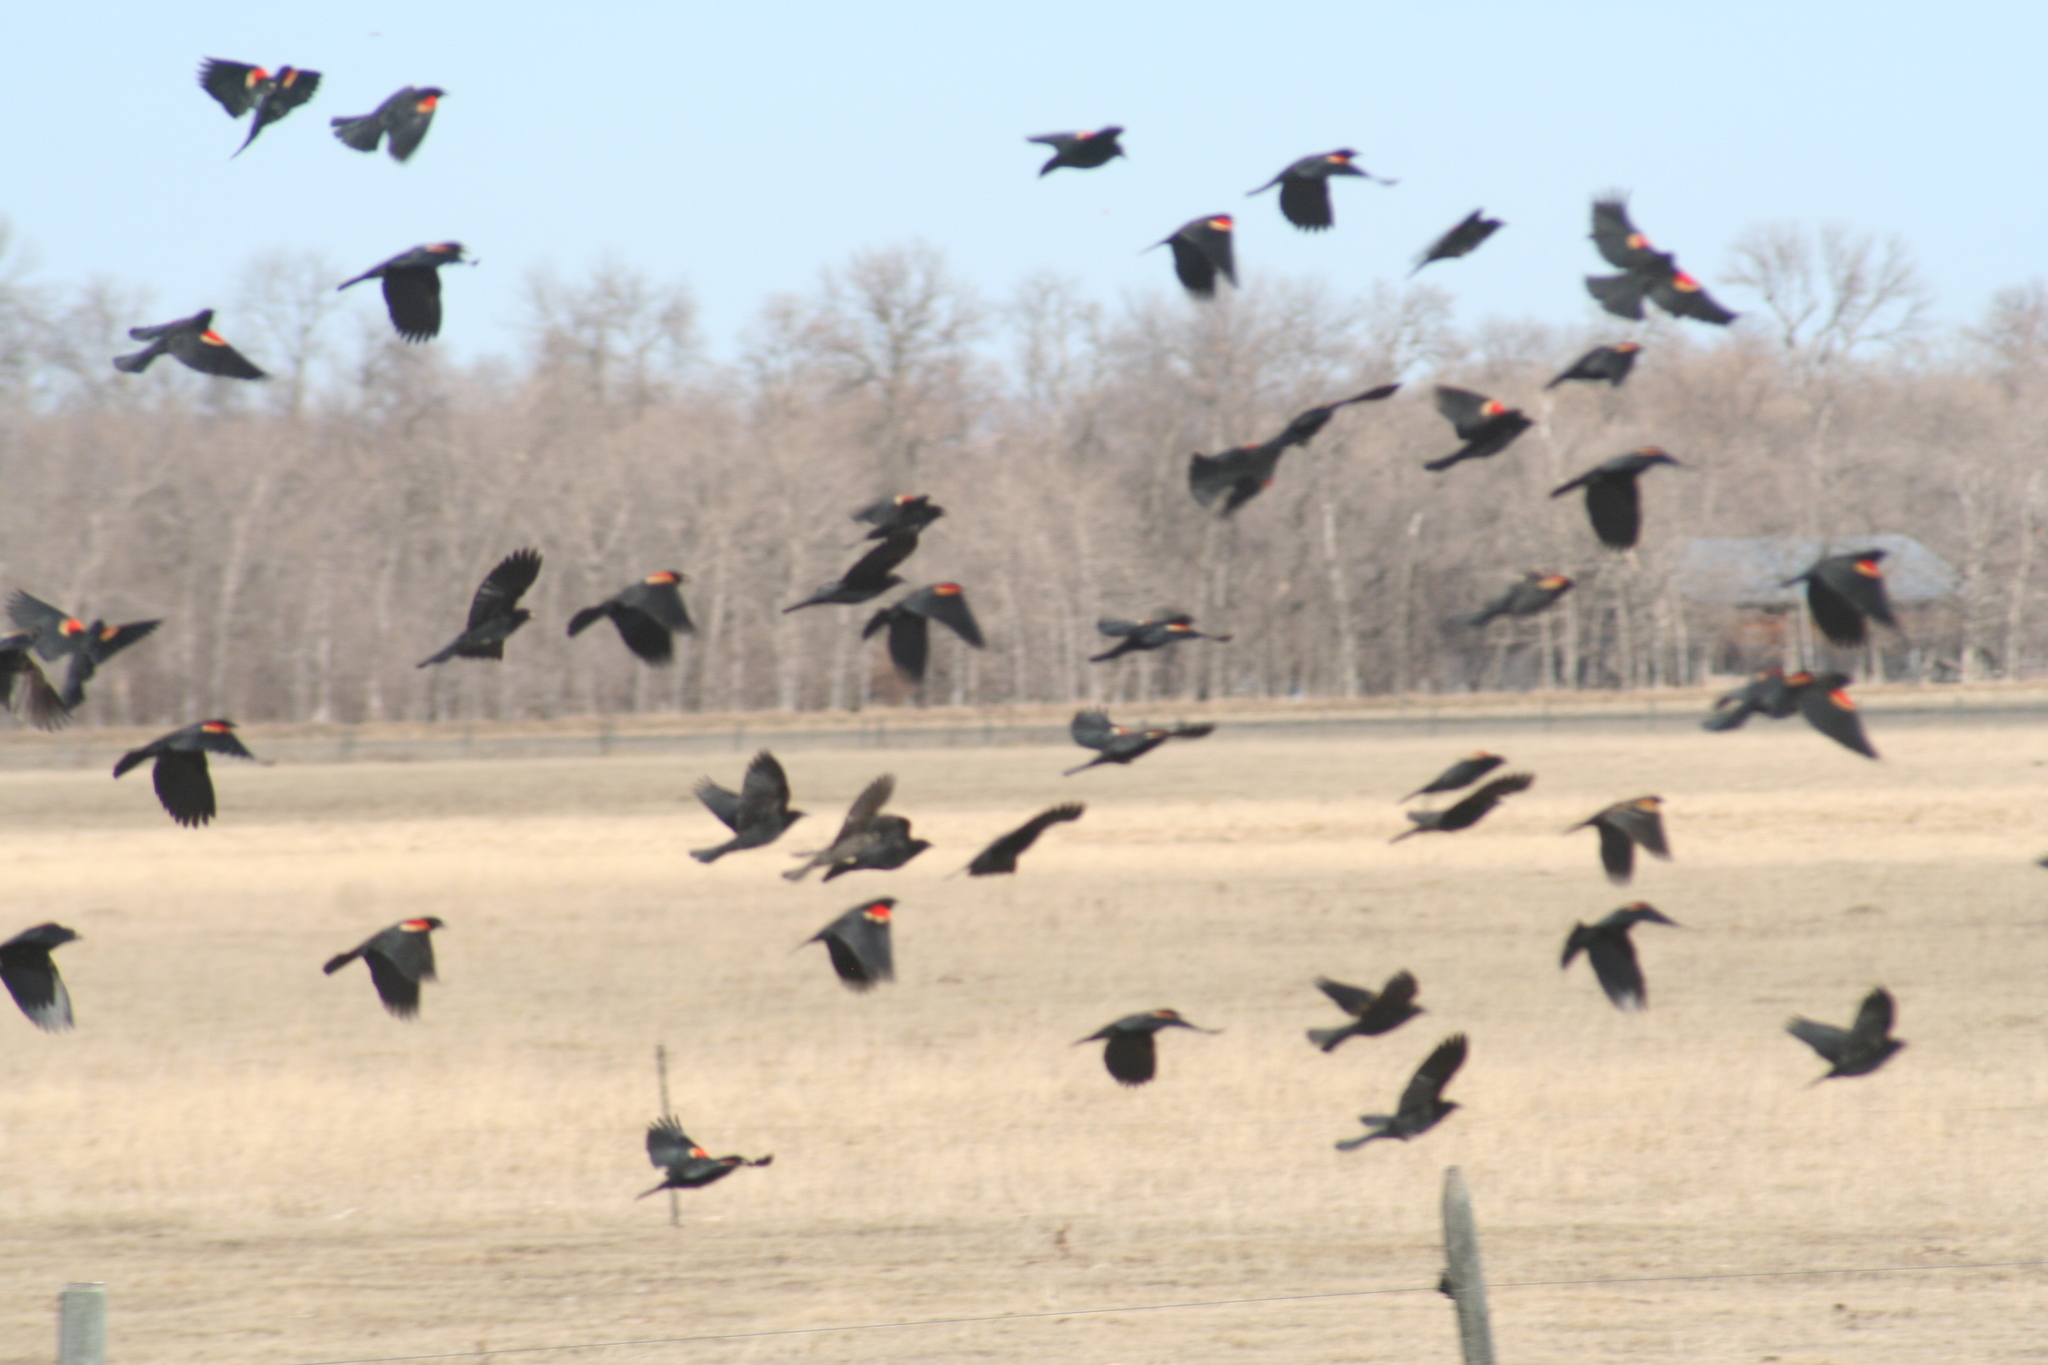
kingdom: Animalia
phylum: Chordata
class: Aves
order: Passeriformes
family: Icteridae
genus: Agelaius
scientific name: Agelaius phoeniceus
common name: Red-winged blackbird
